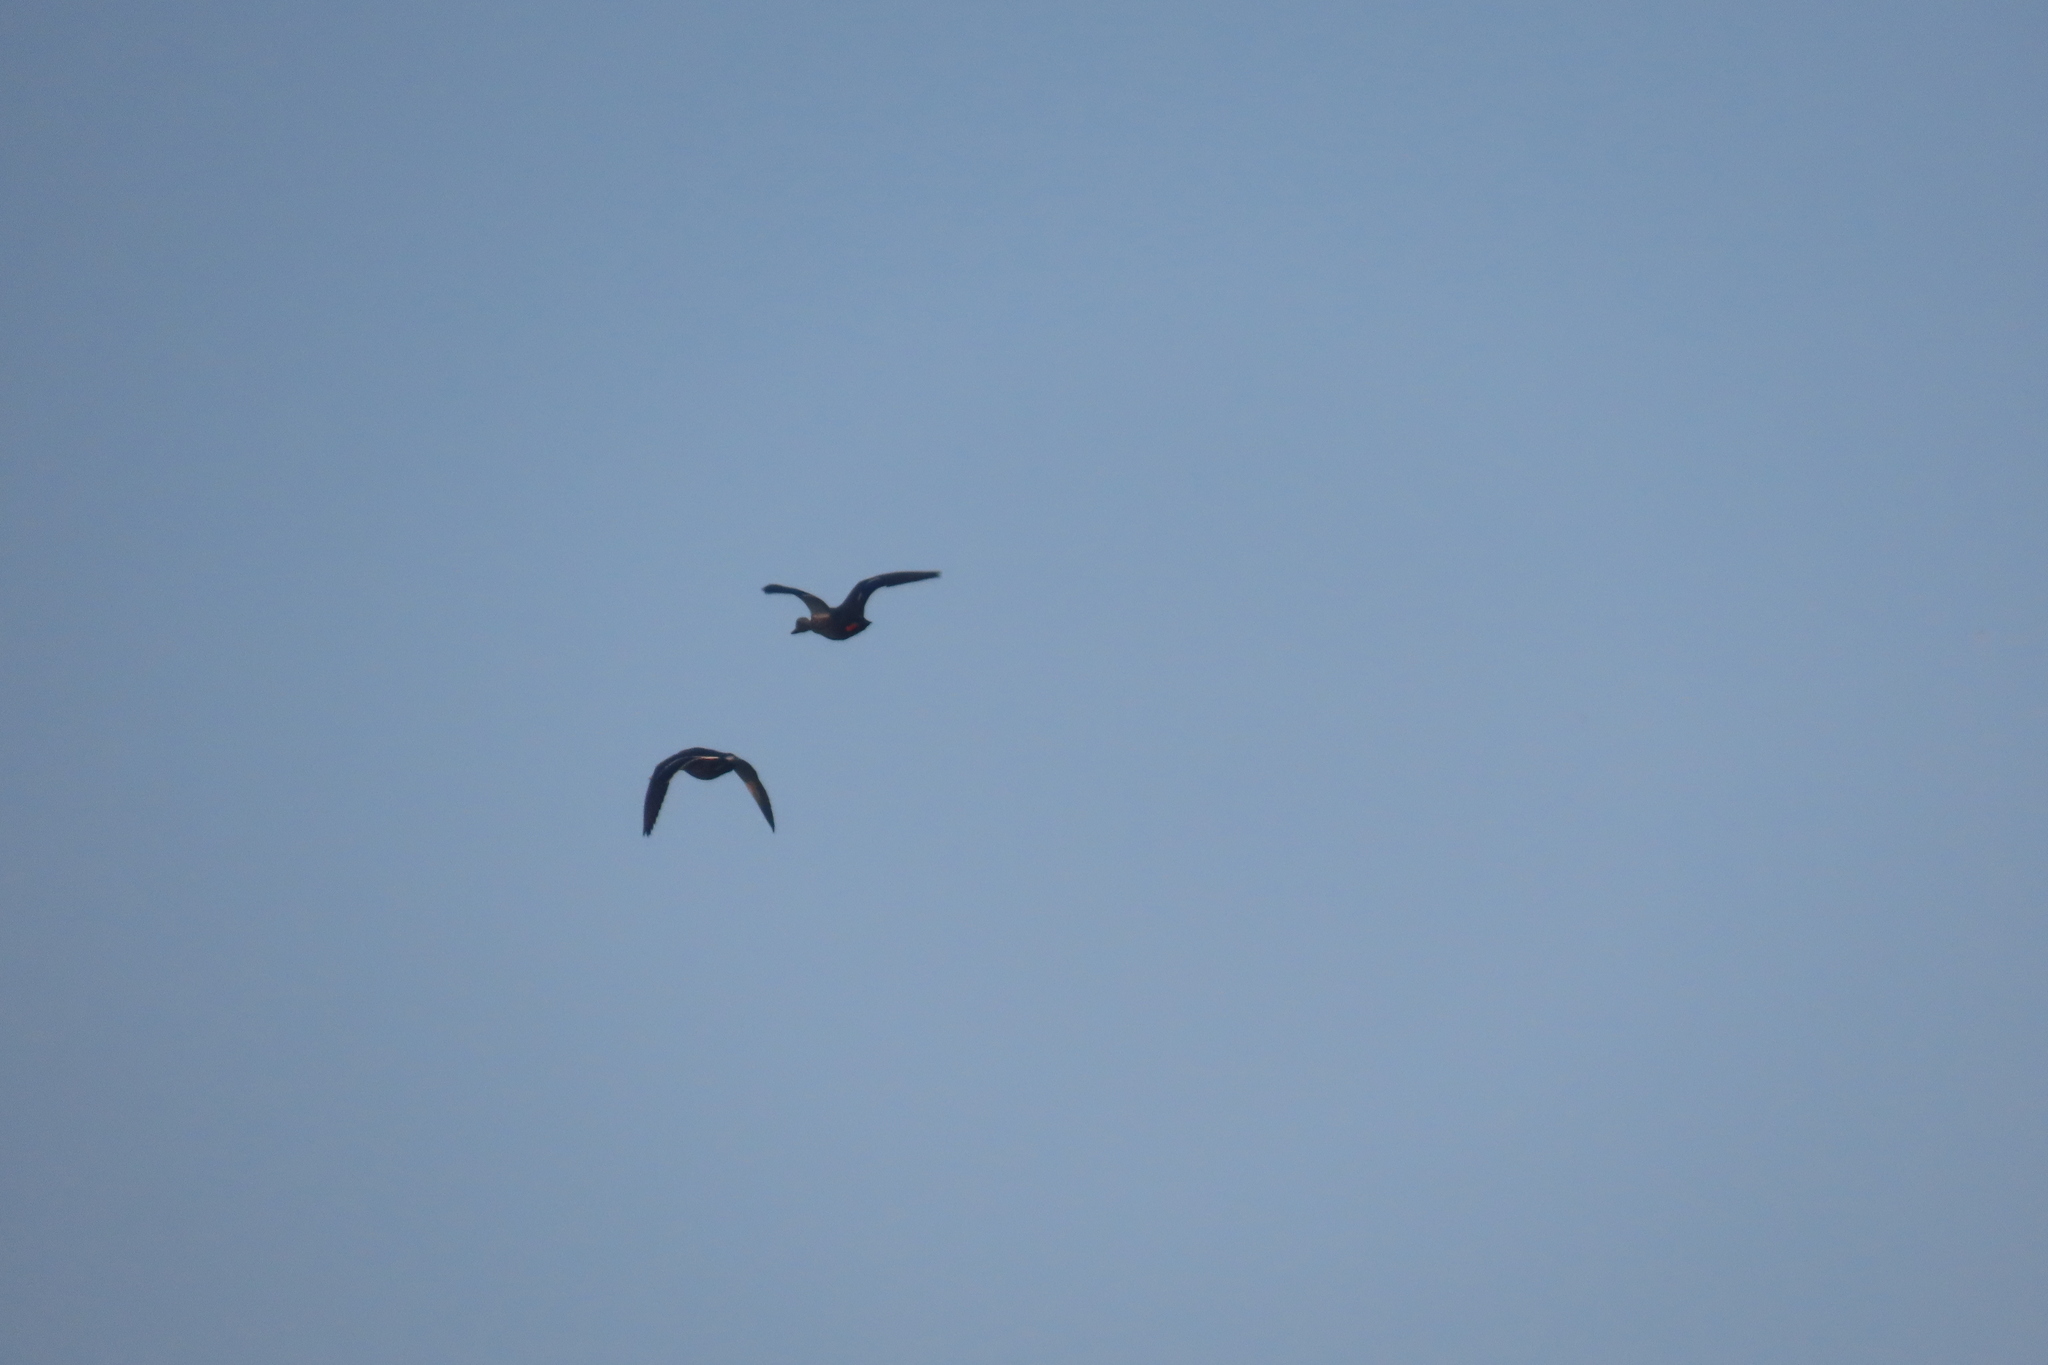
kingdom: Animalia
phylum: Chordata
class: Aves
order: Anseriformes
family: Anatidae
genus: Anas
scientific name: Anas poecilorhyncha
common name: Indian spot-billed duck
